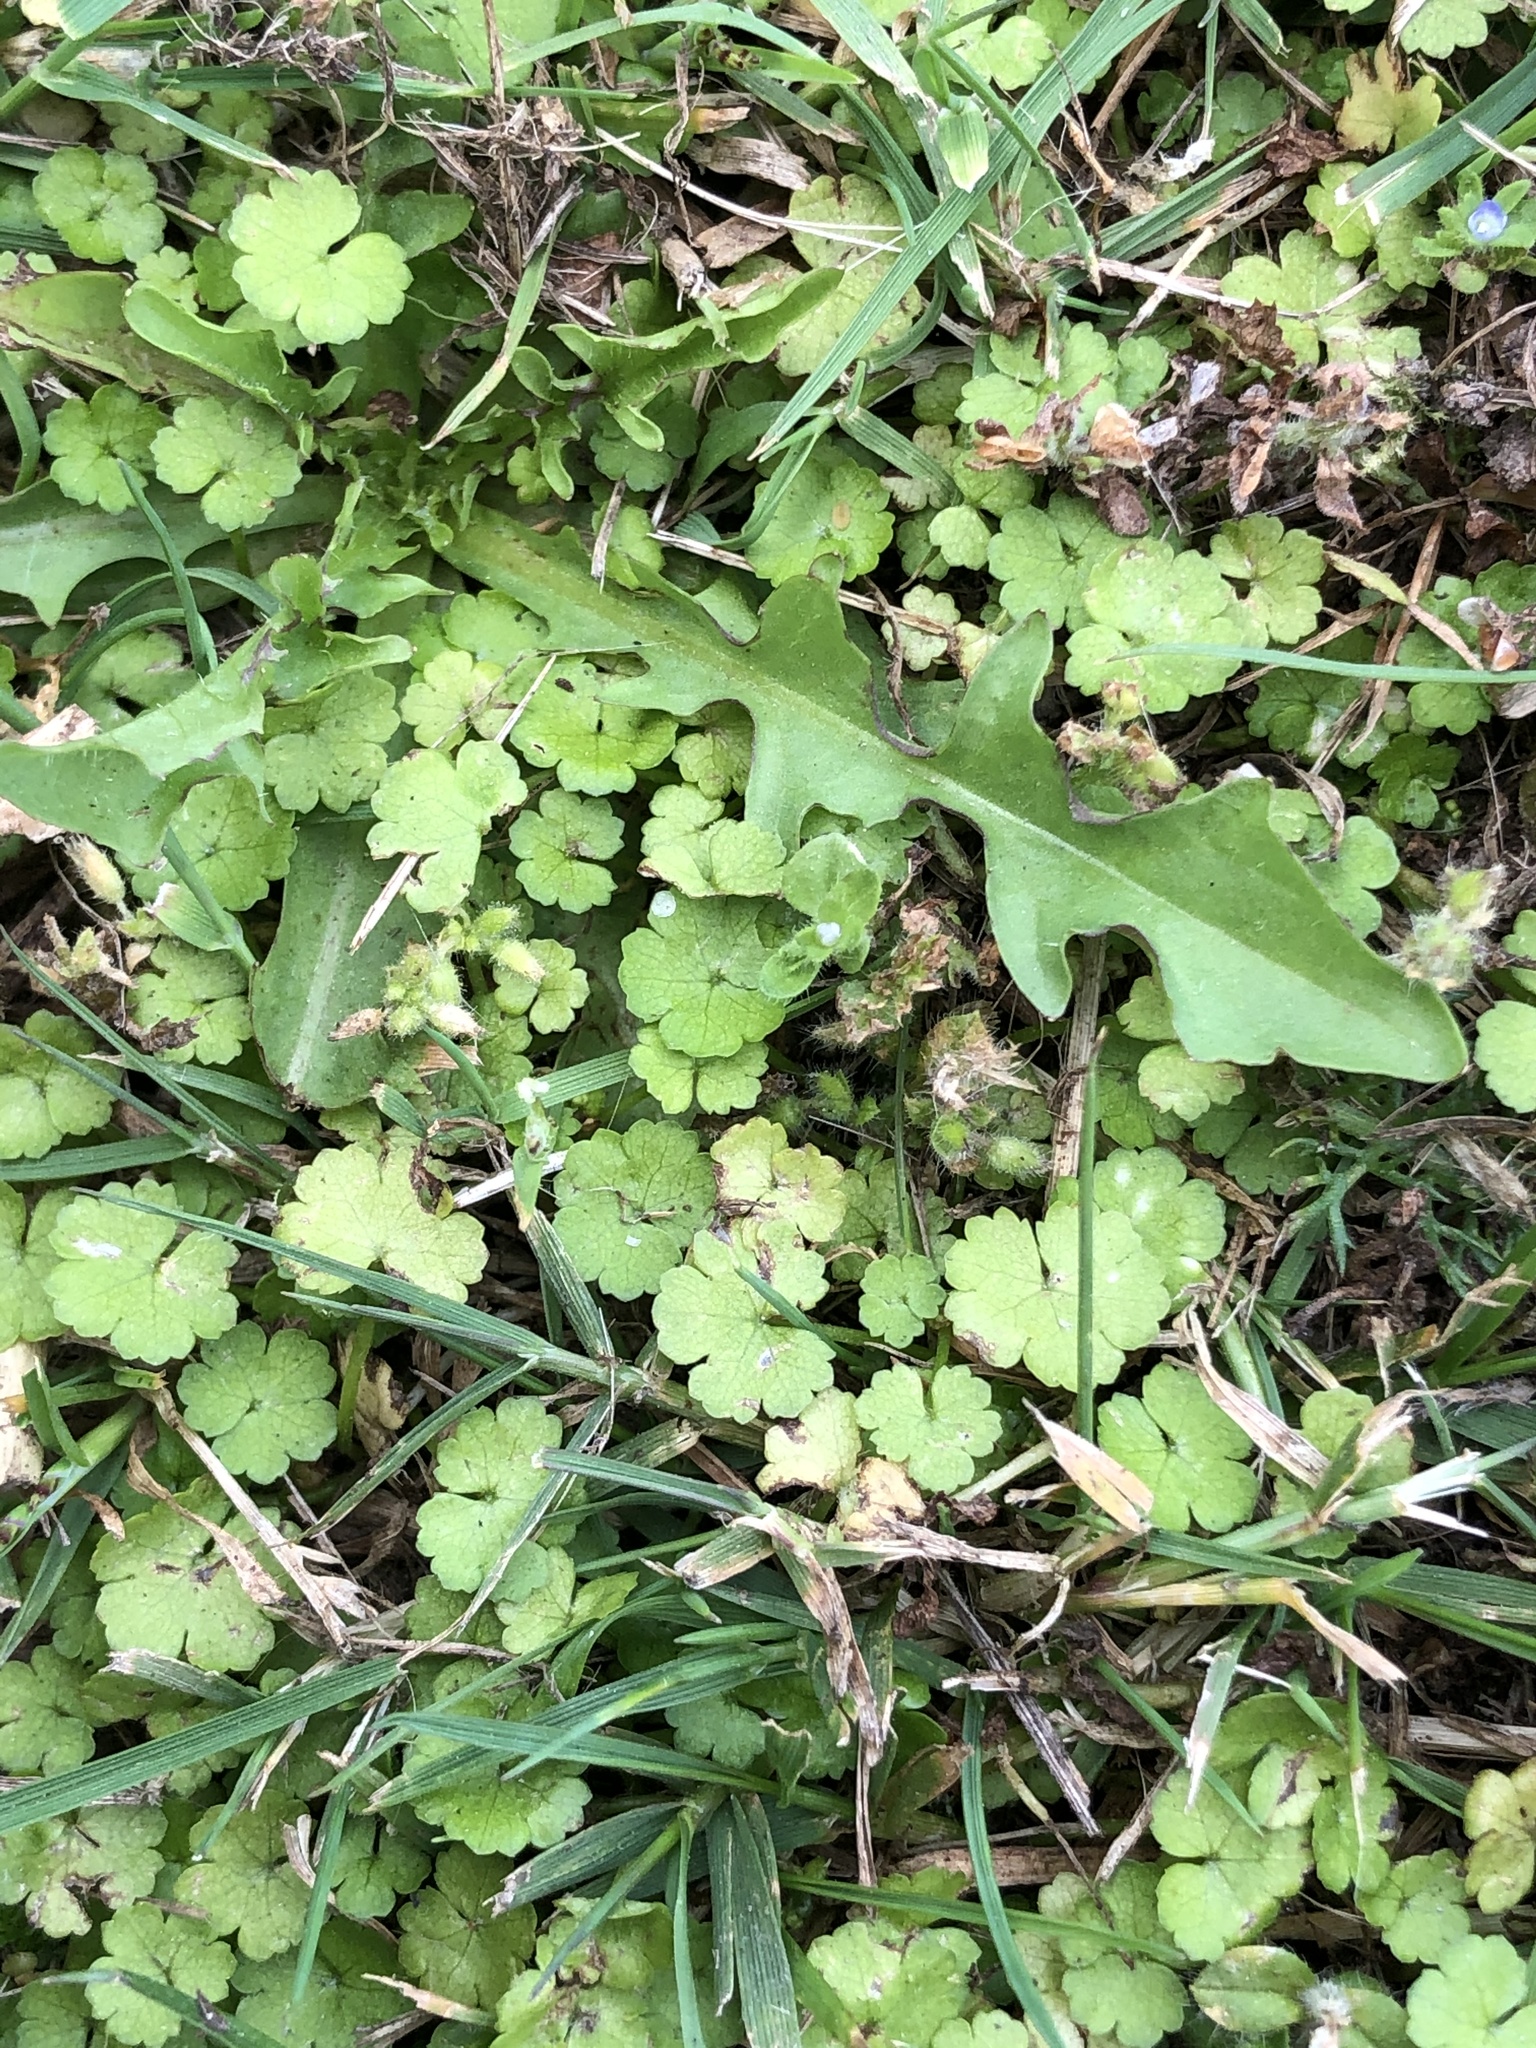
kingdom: Plantae
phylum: Tracheophyta
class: Magnoliopsida
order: Apiales
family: Araliaceae
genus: Hydrocotyle
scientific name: Hydrocotyle heteromeria
